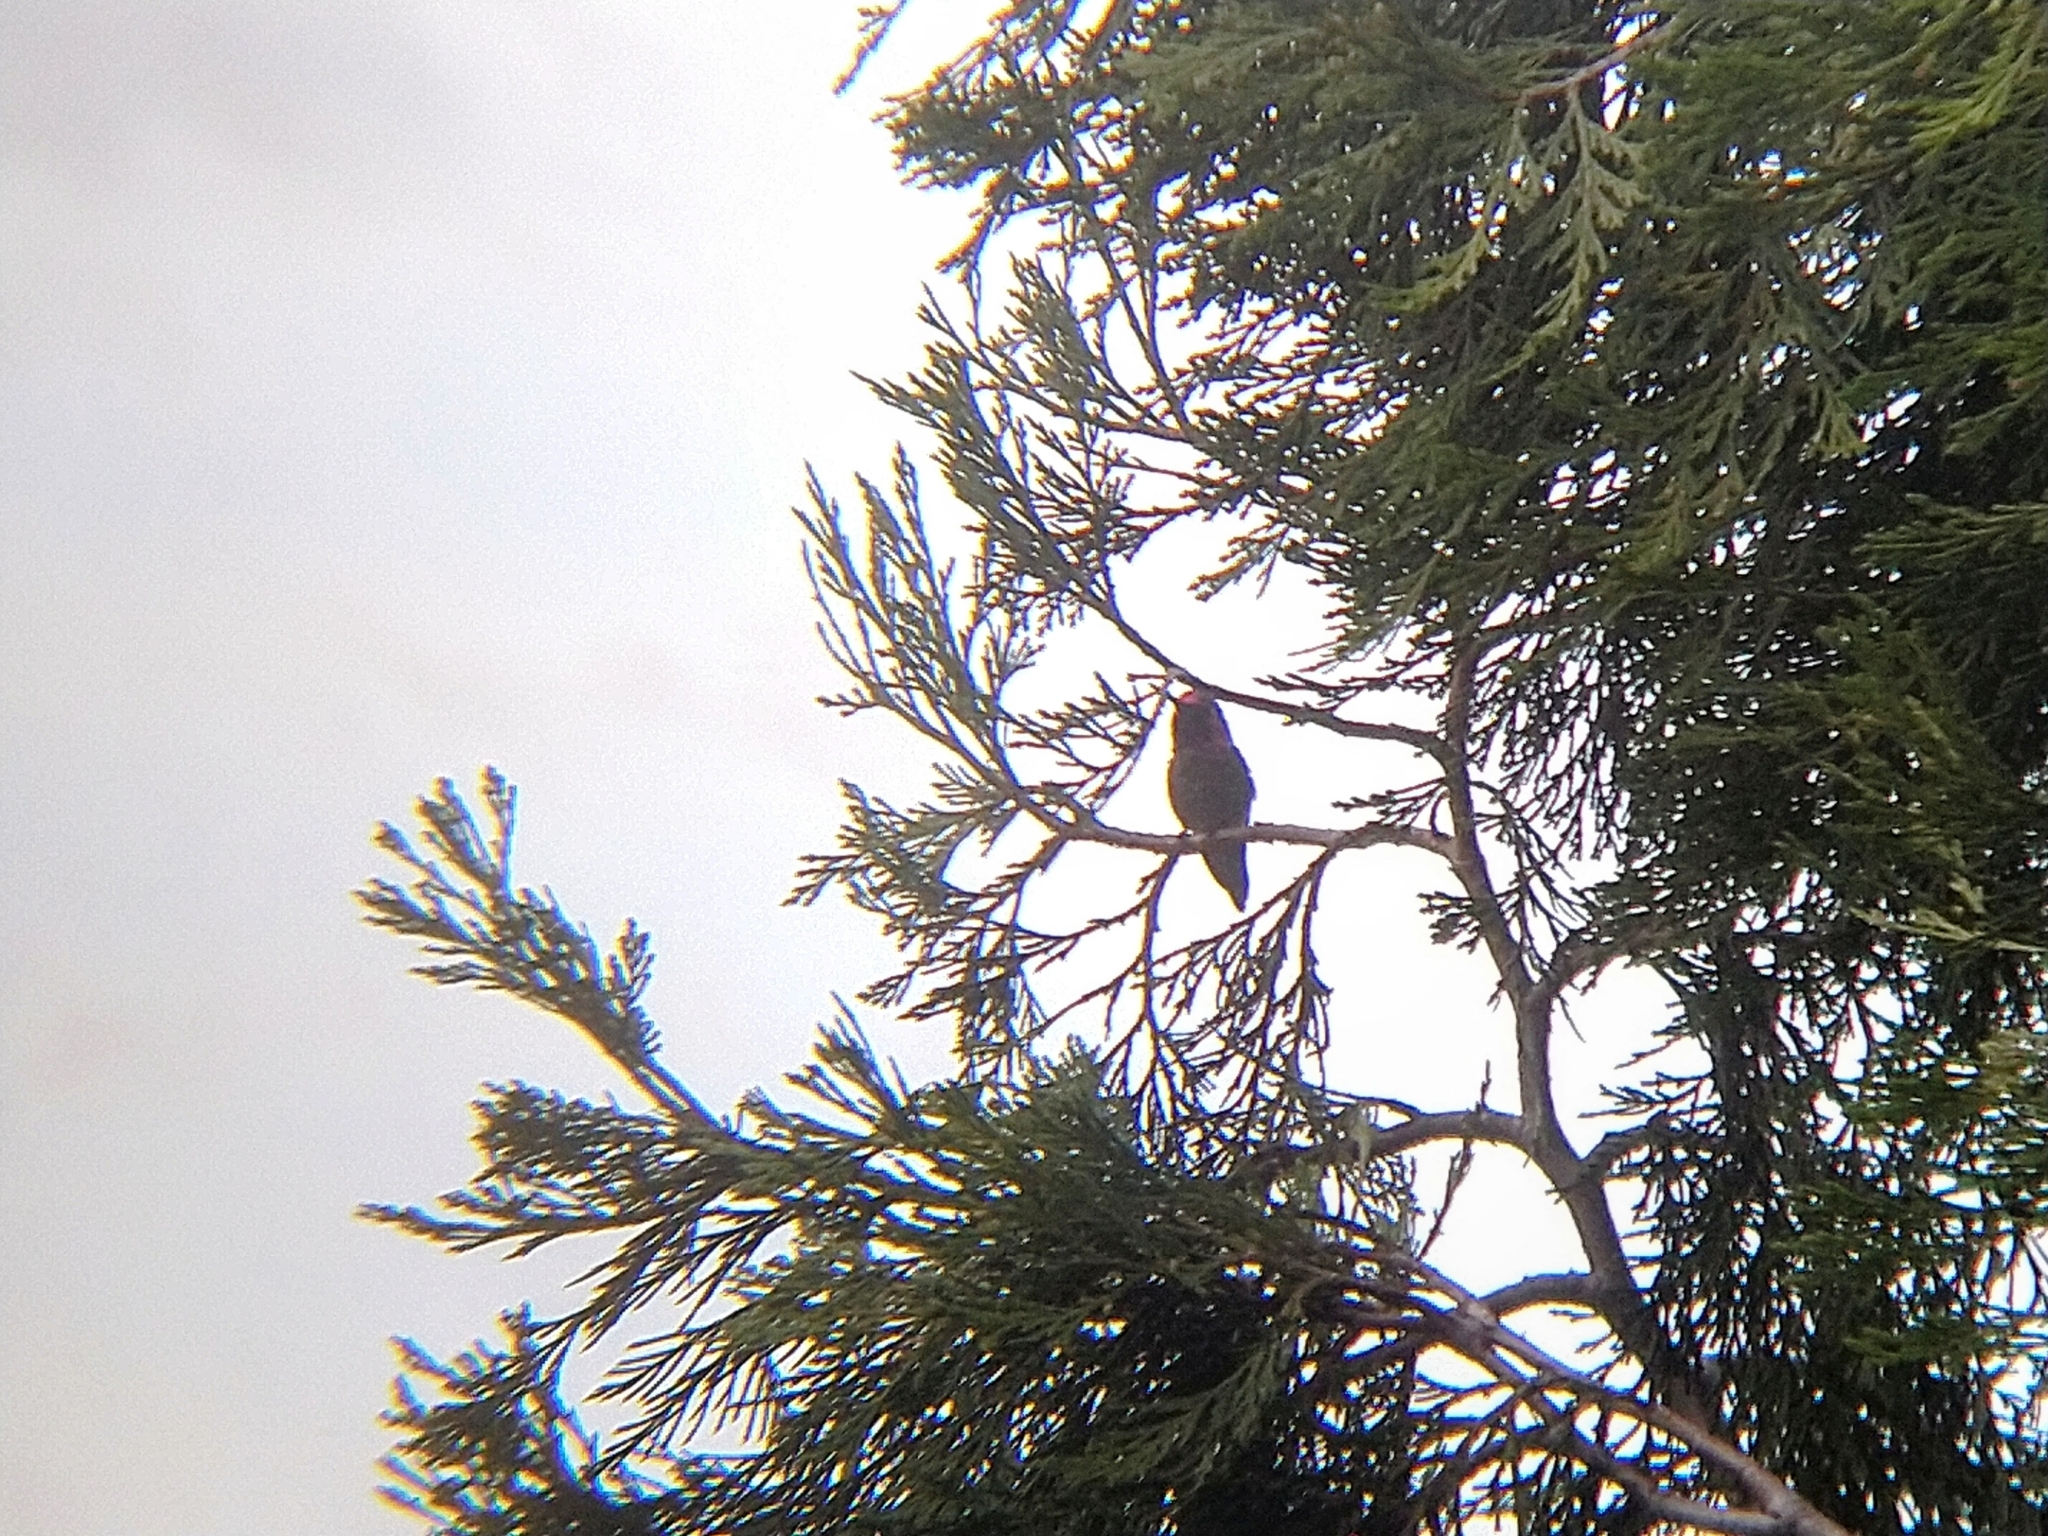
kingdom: Animalia
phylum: Chordata
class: Aves
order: Apodiformes
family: Trochilidae
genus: Calypte
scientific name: Calypte anna
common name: Anna's hummingbird
